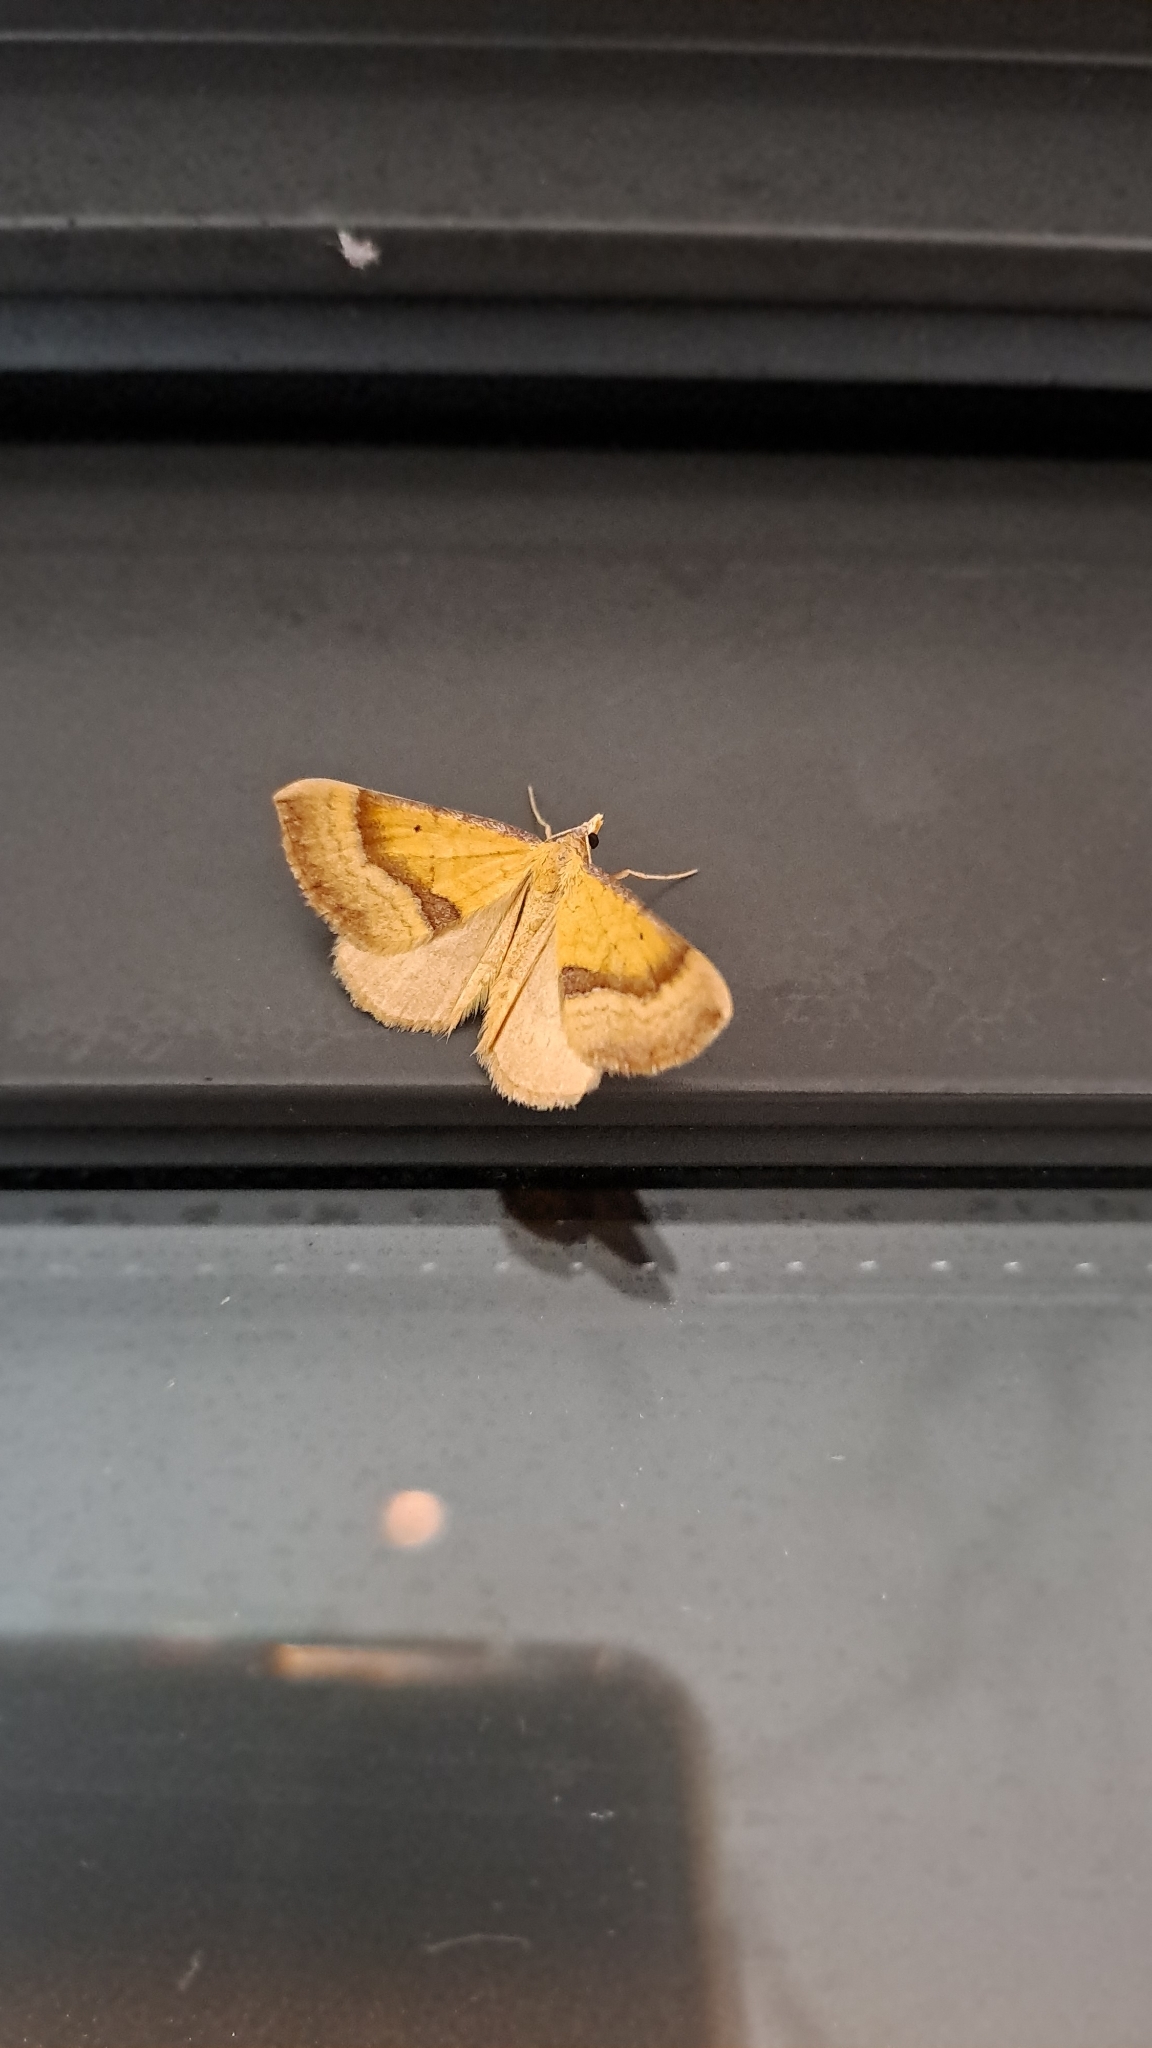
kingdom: Animalia
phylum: Arthropoda
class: Insecta
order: Lepidoptera
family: Geometridae
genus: Anachloris
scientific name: Anachloris subochraria
